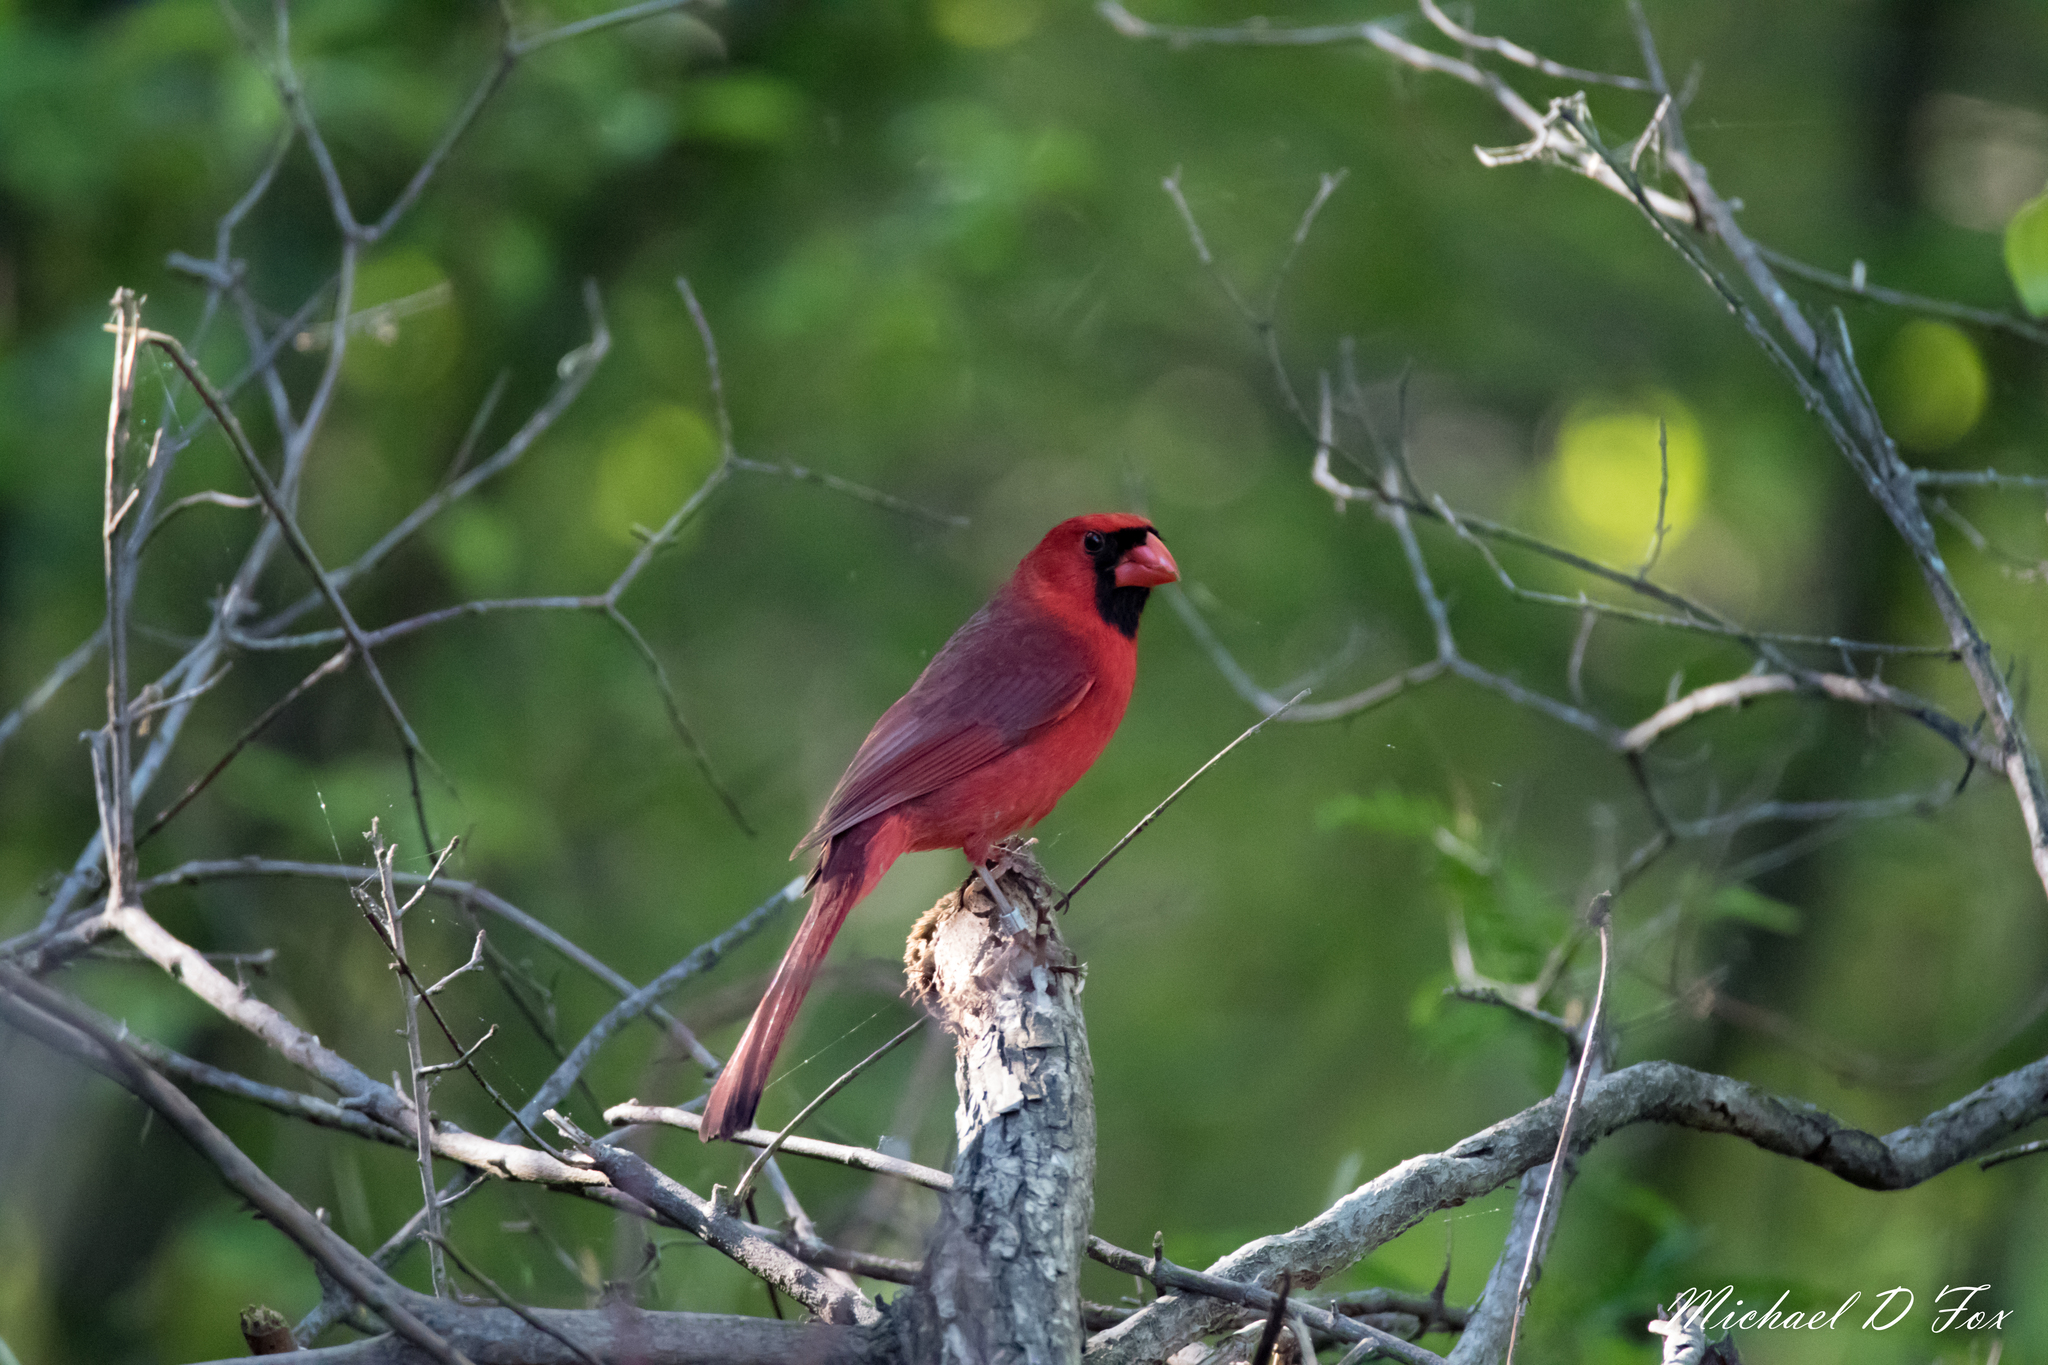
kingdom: Animalia
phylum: Chordata
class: Aves
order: Passeriformes
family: Cardinalidae
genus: Cardinalis
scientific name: Cardinalis cardinalis
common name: Northern cardinal
